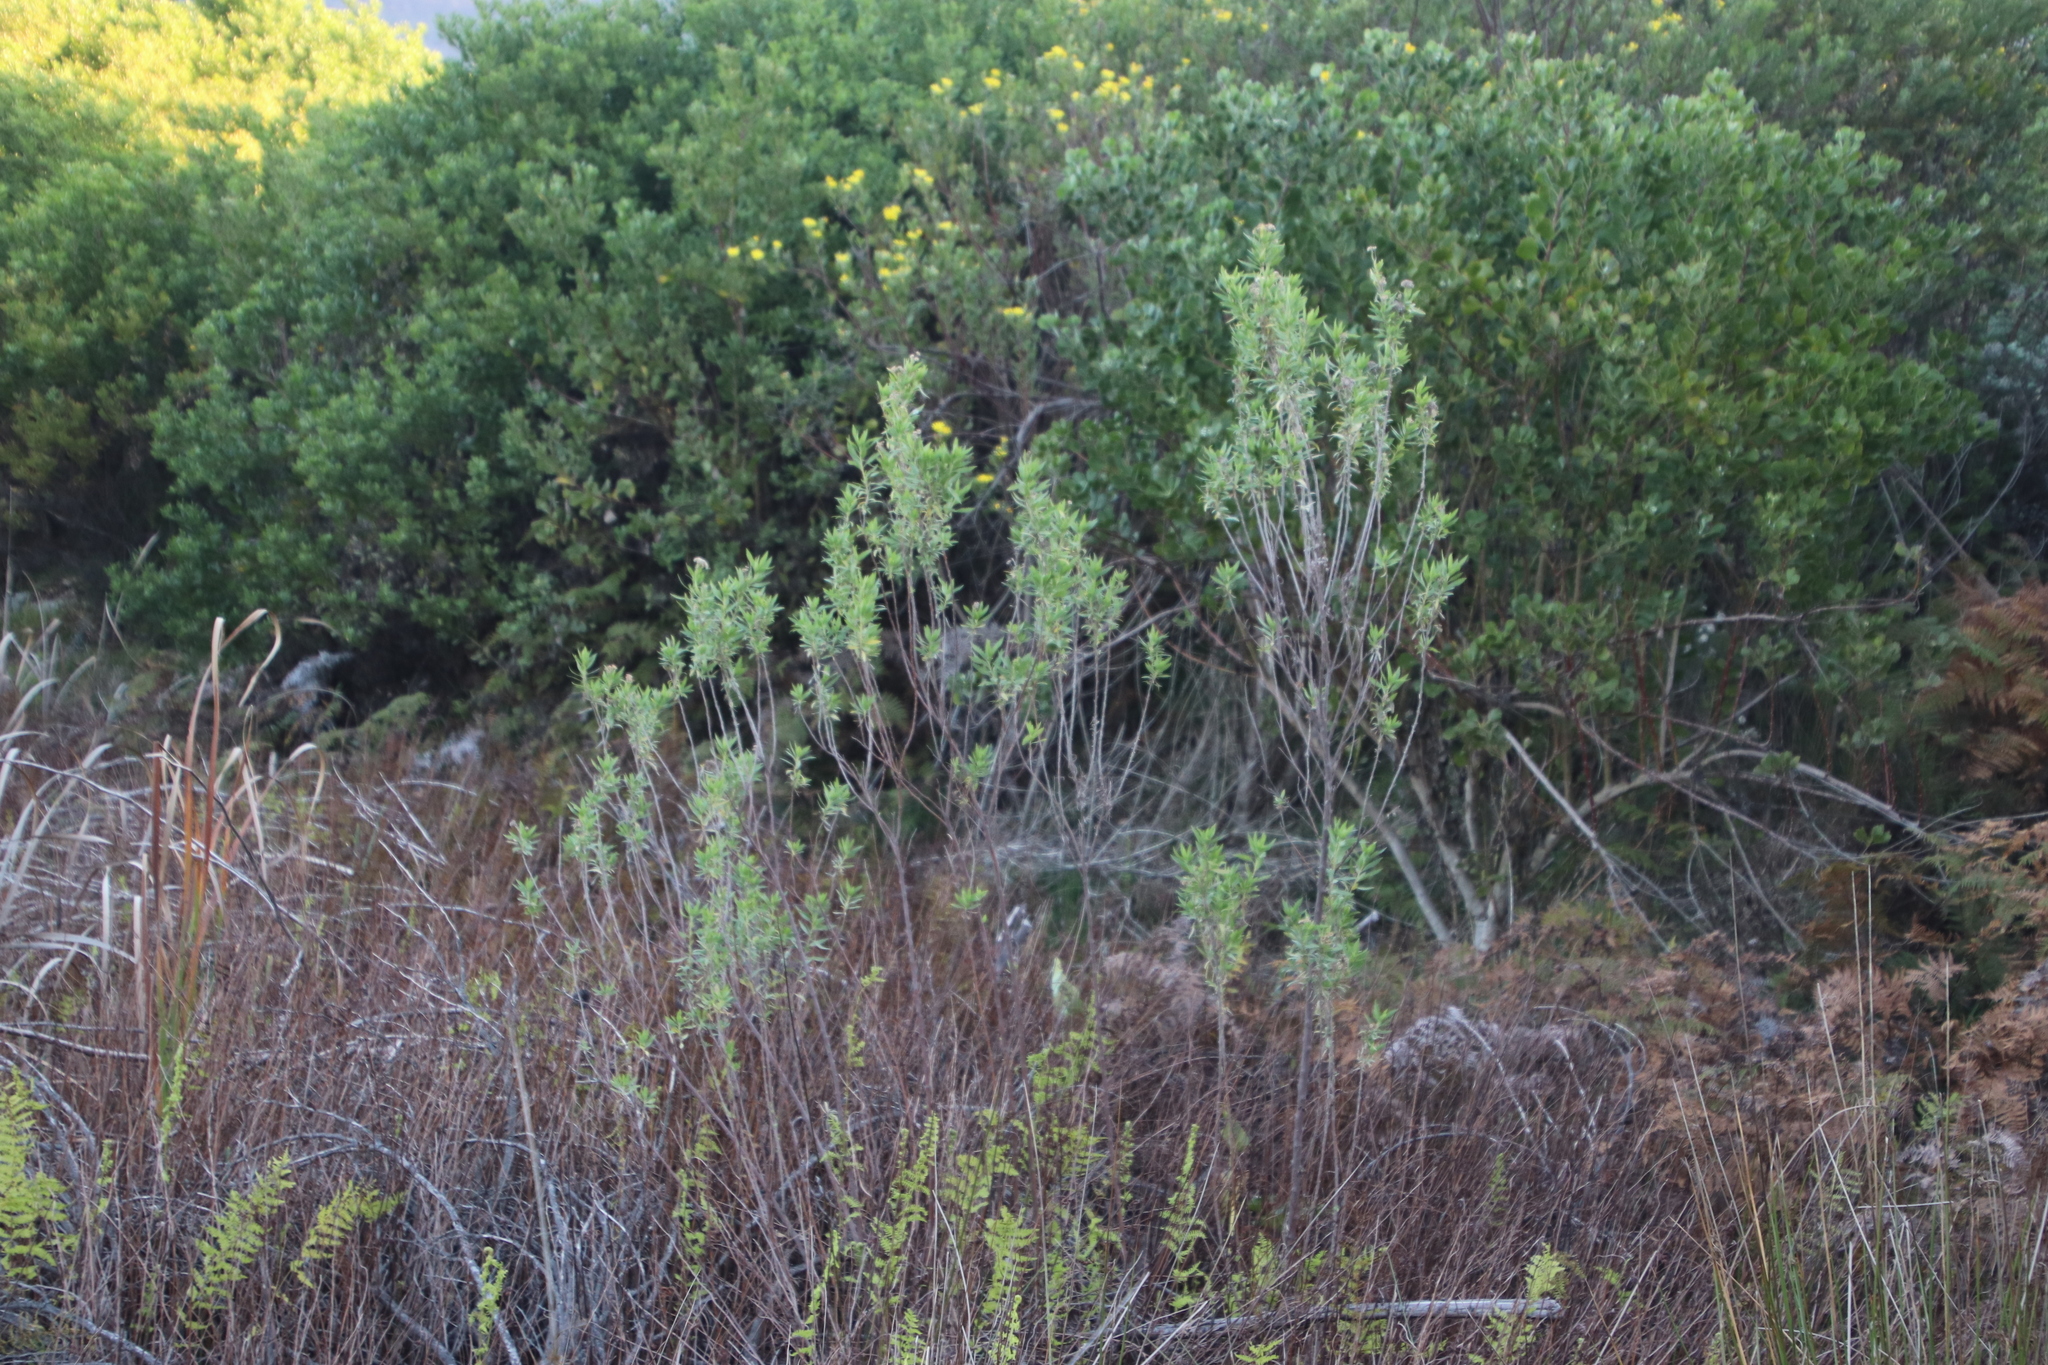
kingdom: Plantae
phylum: Tracheophyta
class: Magnoliopsida
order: Asterales
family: Asteraceae
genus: Nidorella
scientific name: Nidorella ivifolia
